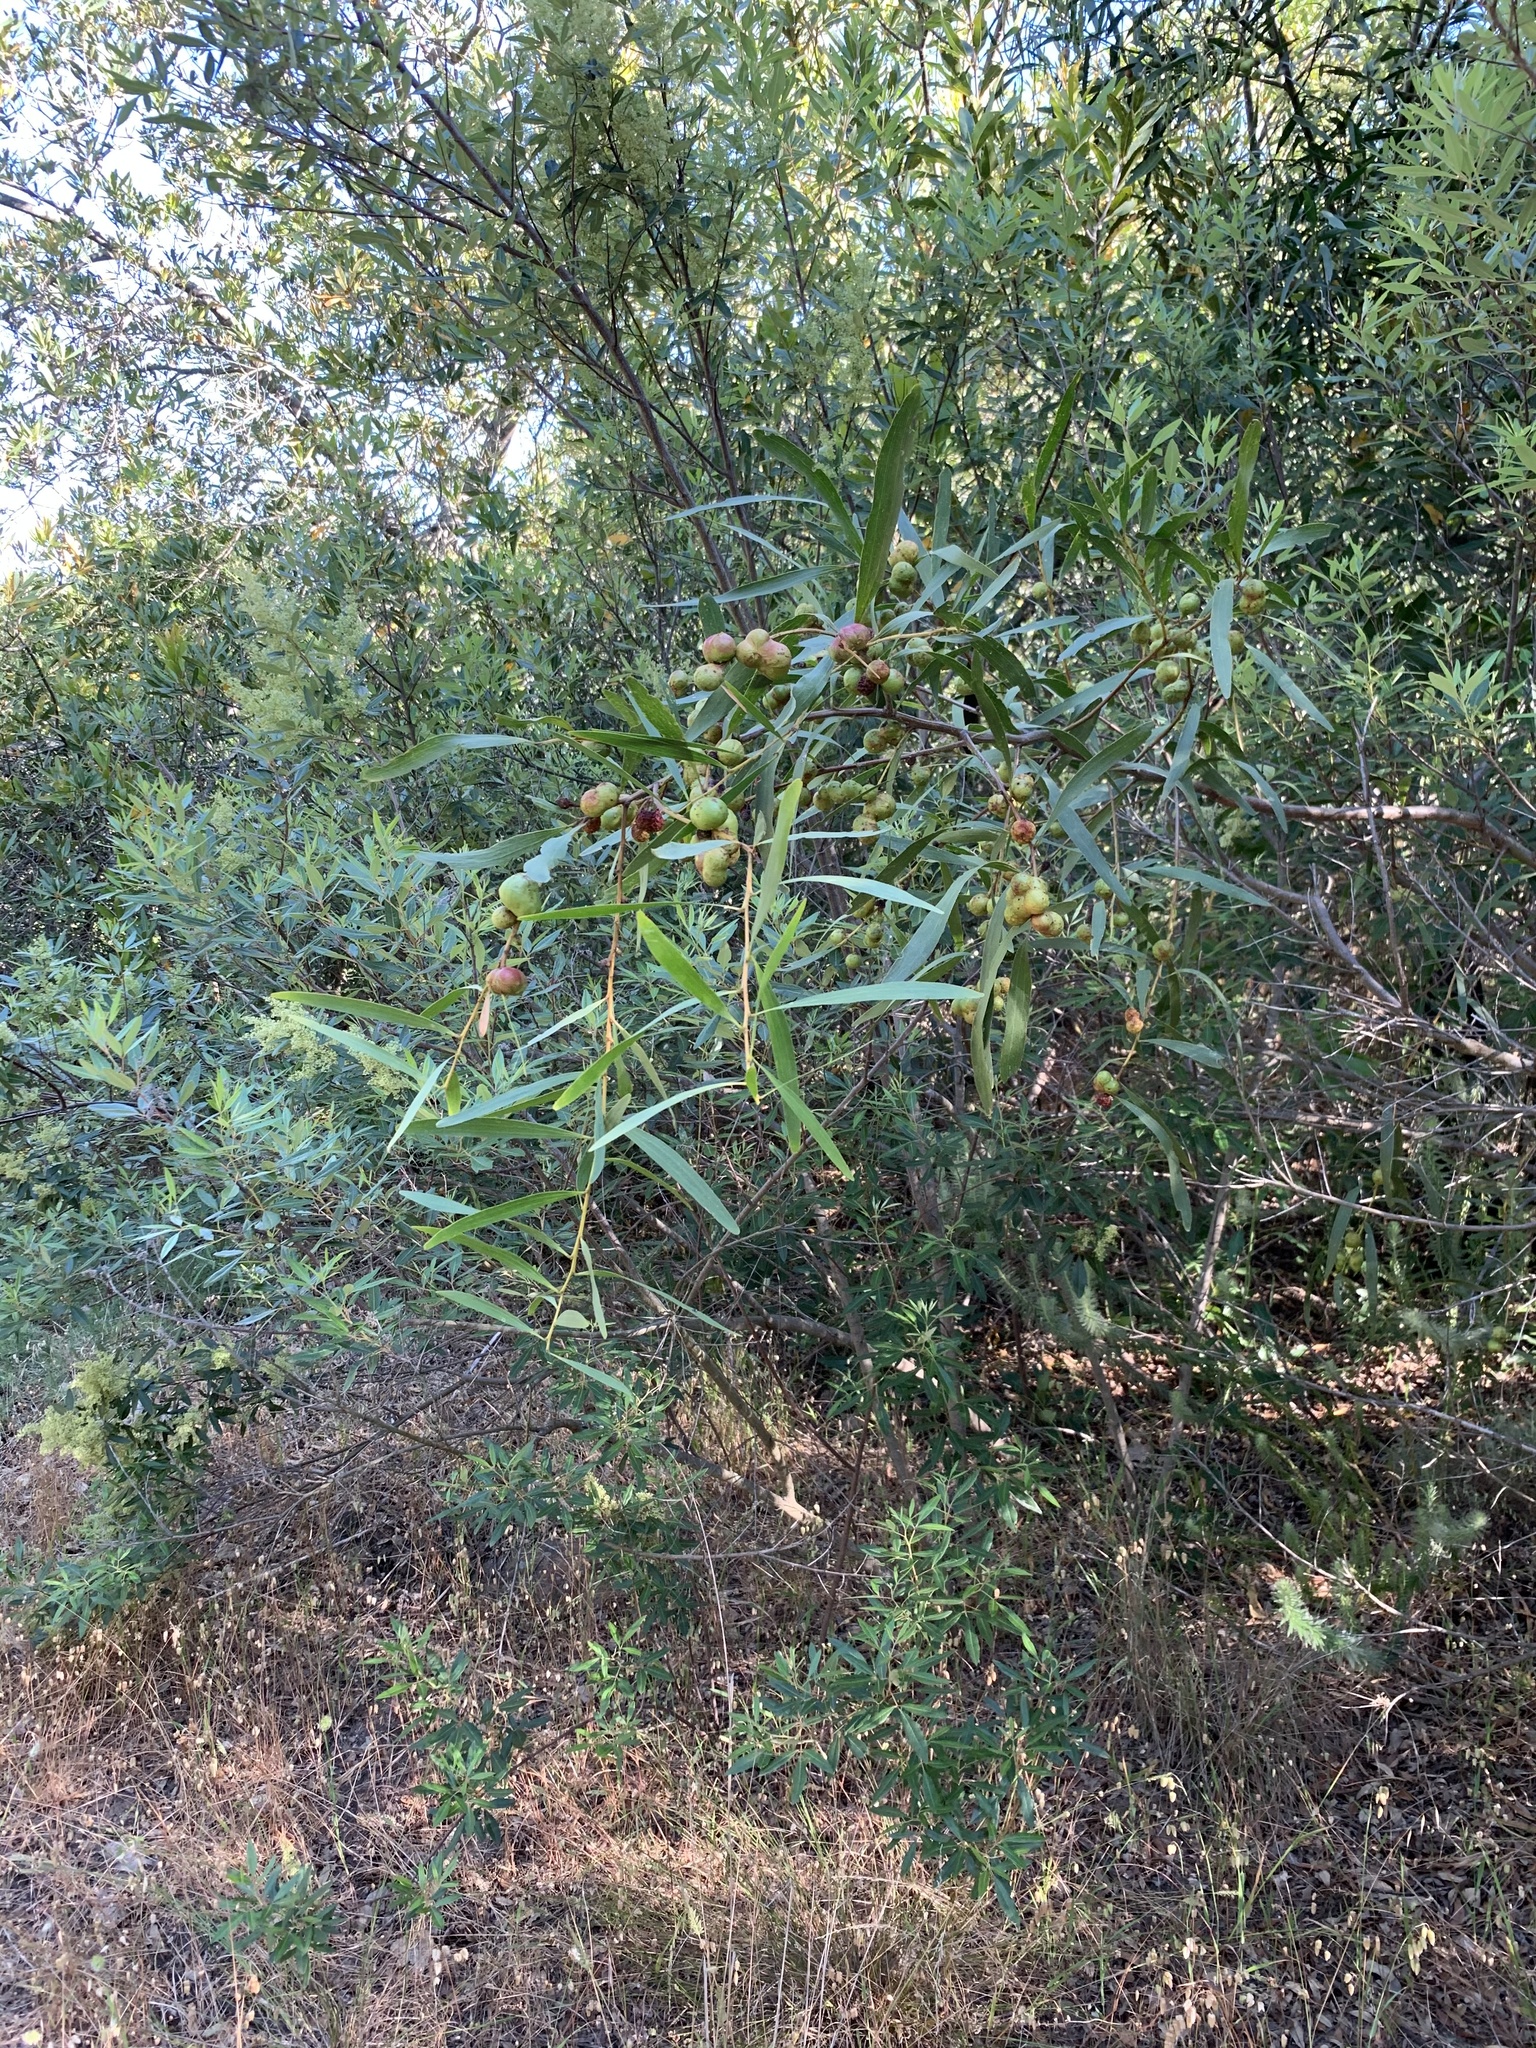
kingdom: Plantae
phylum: Tracheophyta
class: Magnoliopsida
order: Fabales
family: Fabaceae
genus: Acacia
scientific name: Acacia longifolia
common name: Sydney golden wattle
